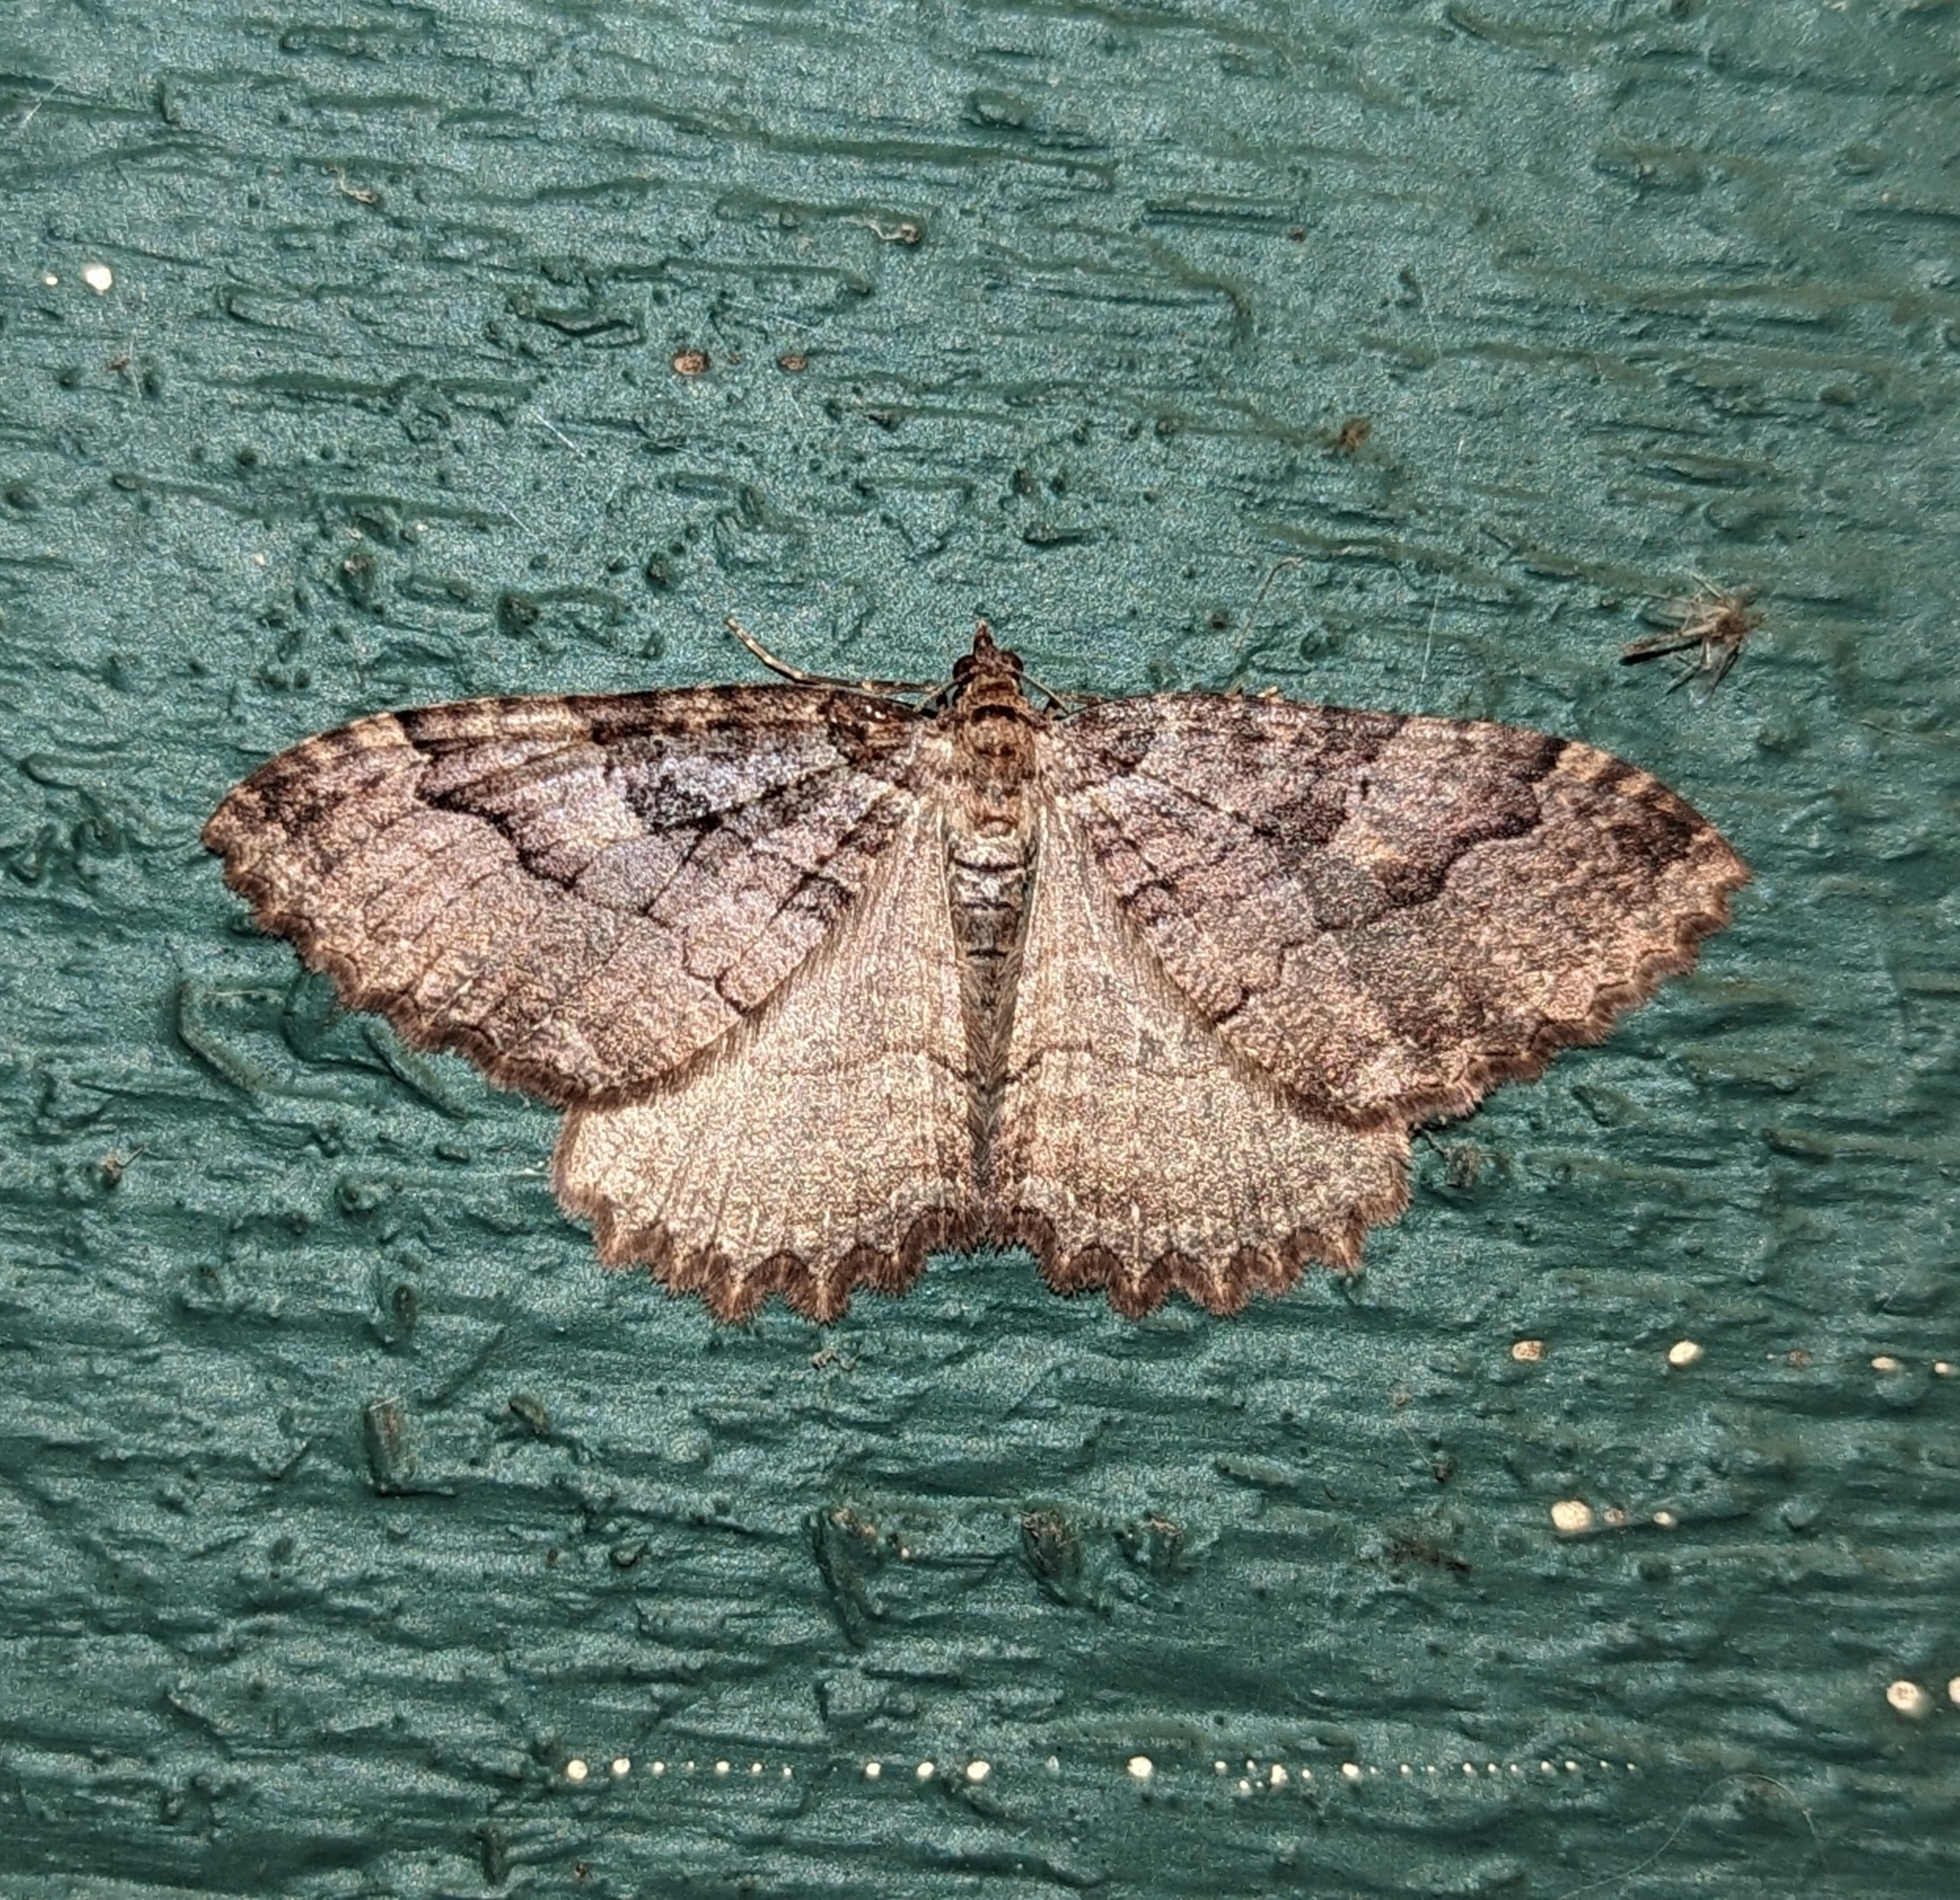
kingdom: Animalia
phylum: Arthropoda
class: Insecta
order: Lepidoptera
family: Geometridae
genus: Triphosa
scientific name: Triphosa haesitata
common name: Tissue moth
